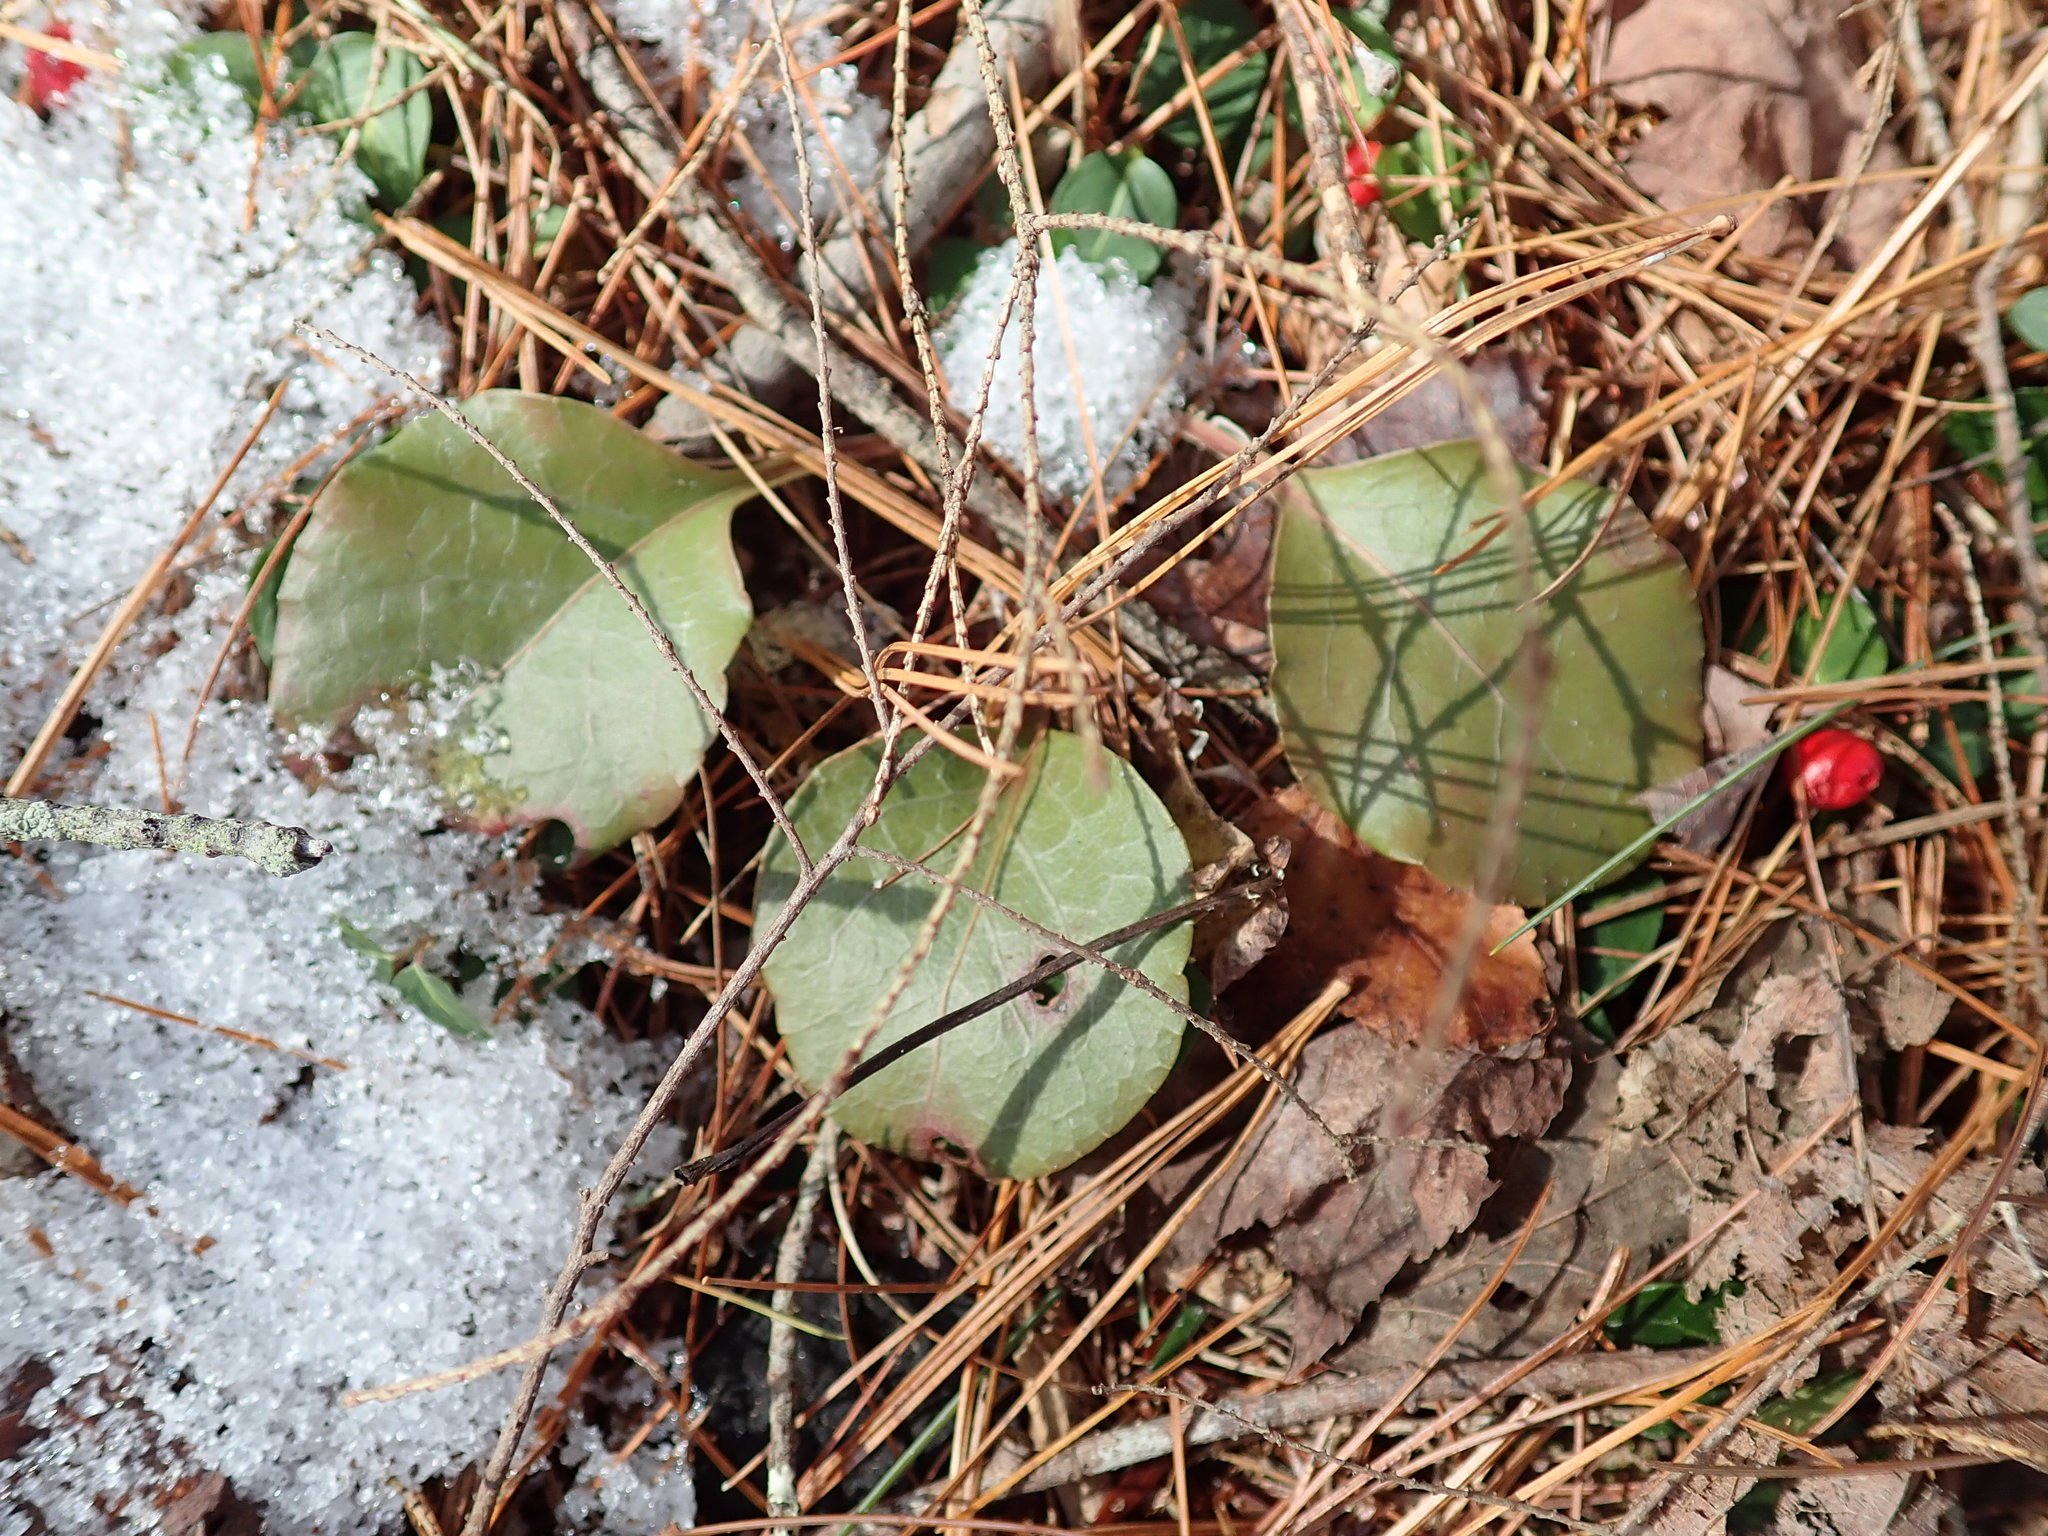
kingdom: Plantae
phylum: Tracheophyta
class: Magnoliopsida
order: Ericales
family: Ericaceae
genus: Pyrola
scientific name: Pyrola americana
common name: American wintergreen
